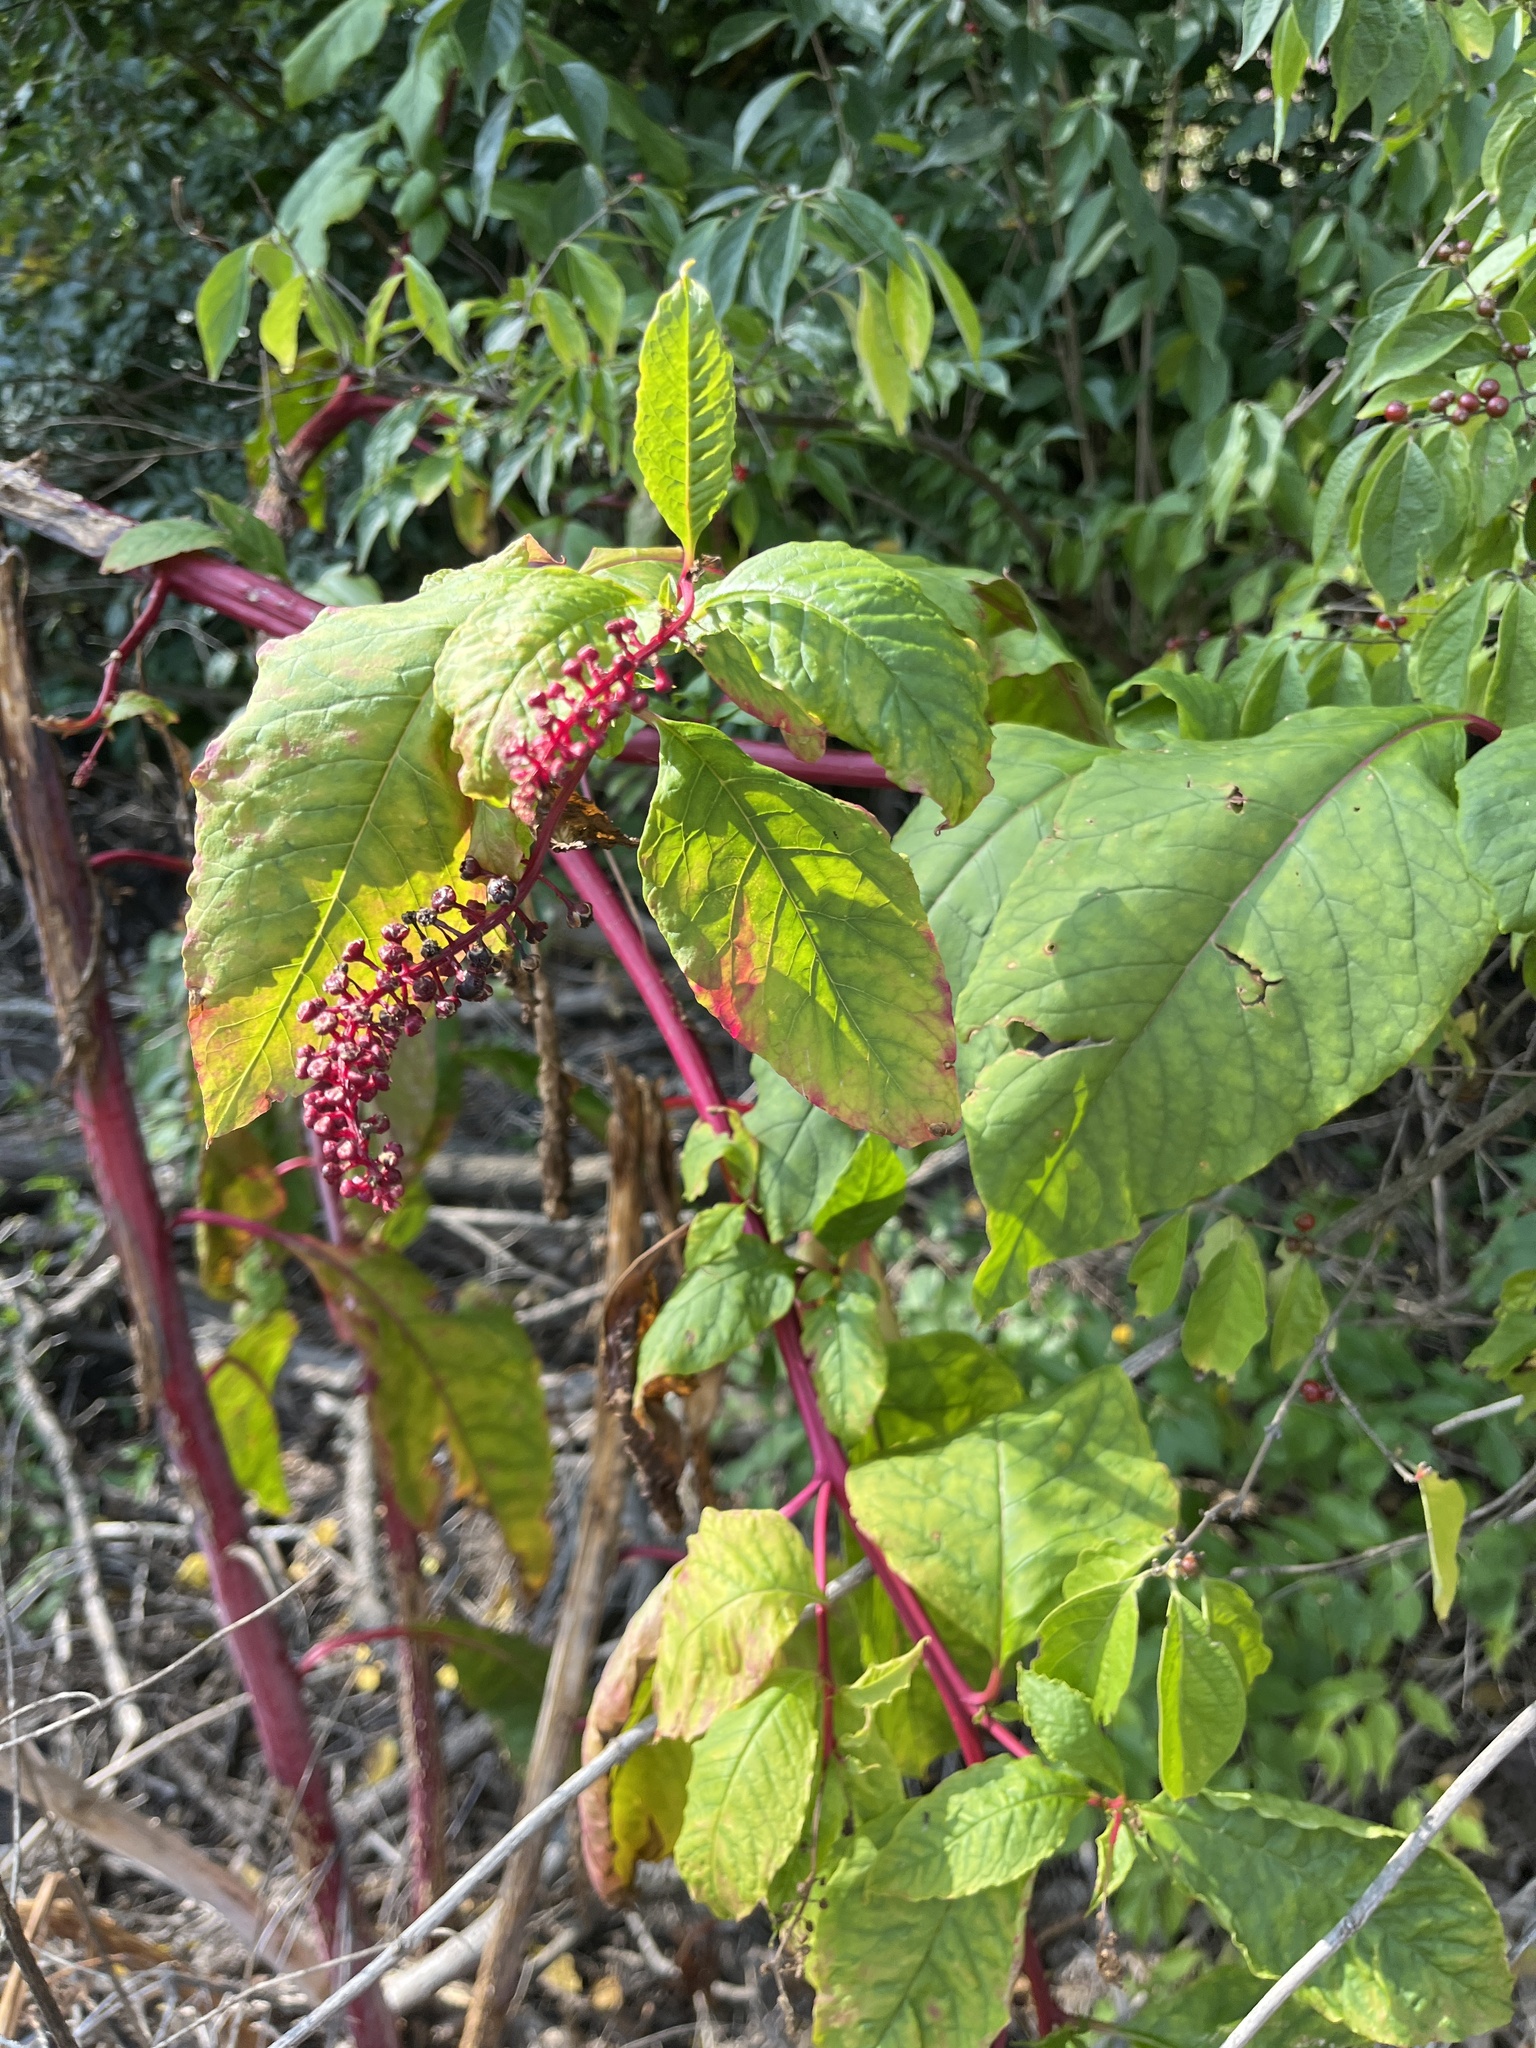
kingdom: Plantae
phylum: Tracheophyta
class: Magnoliopsida
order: Caryophyllales
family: Phytolaccaceae
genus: Phytolacca
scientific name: Phytolacca americana
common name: American pokeweed
